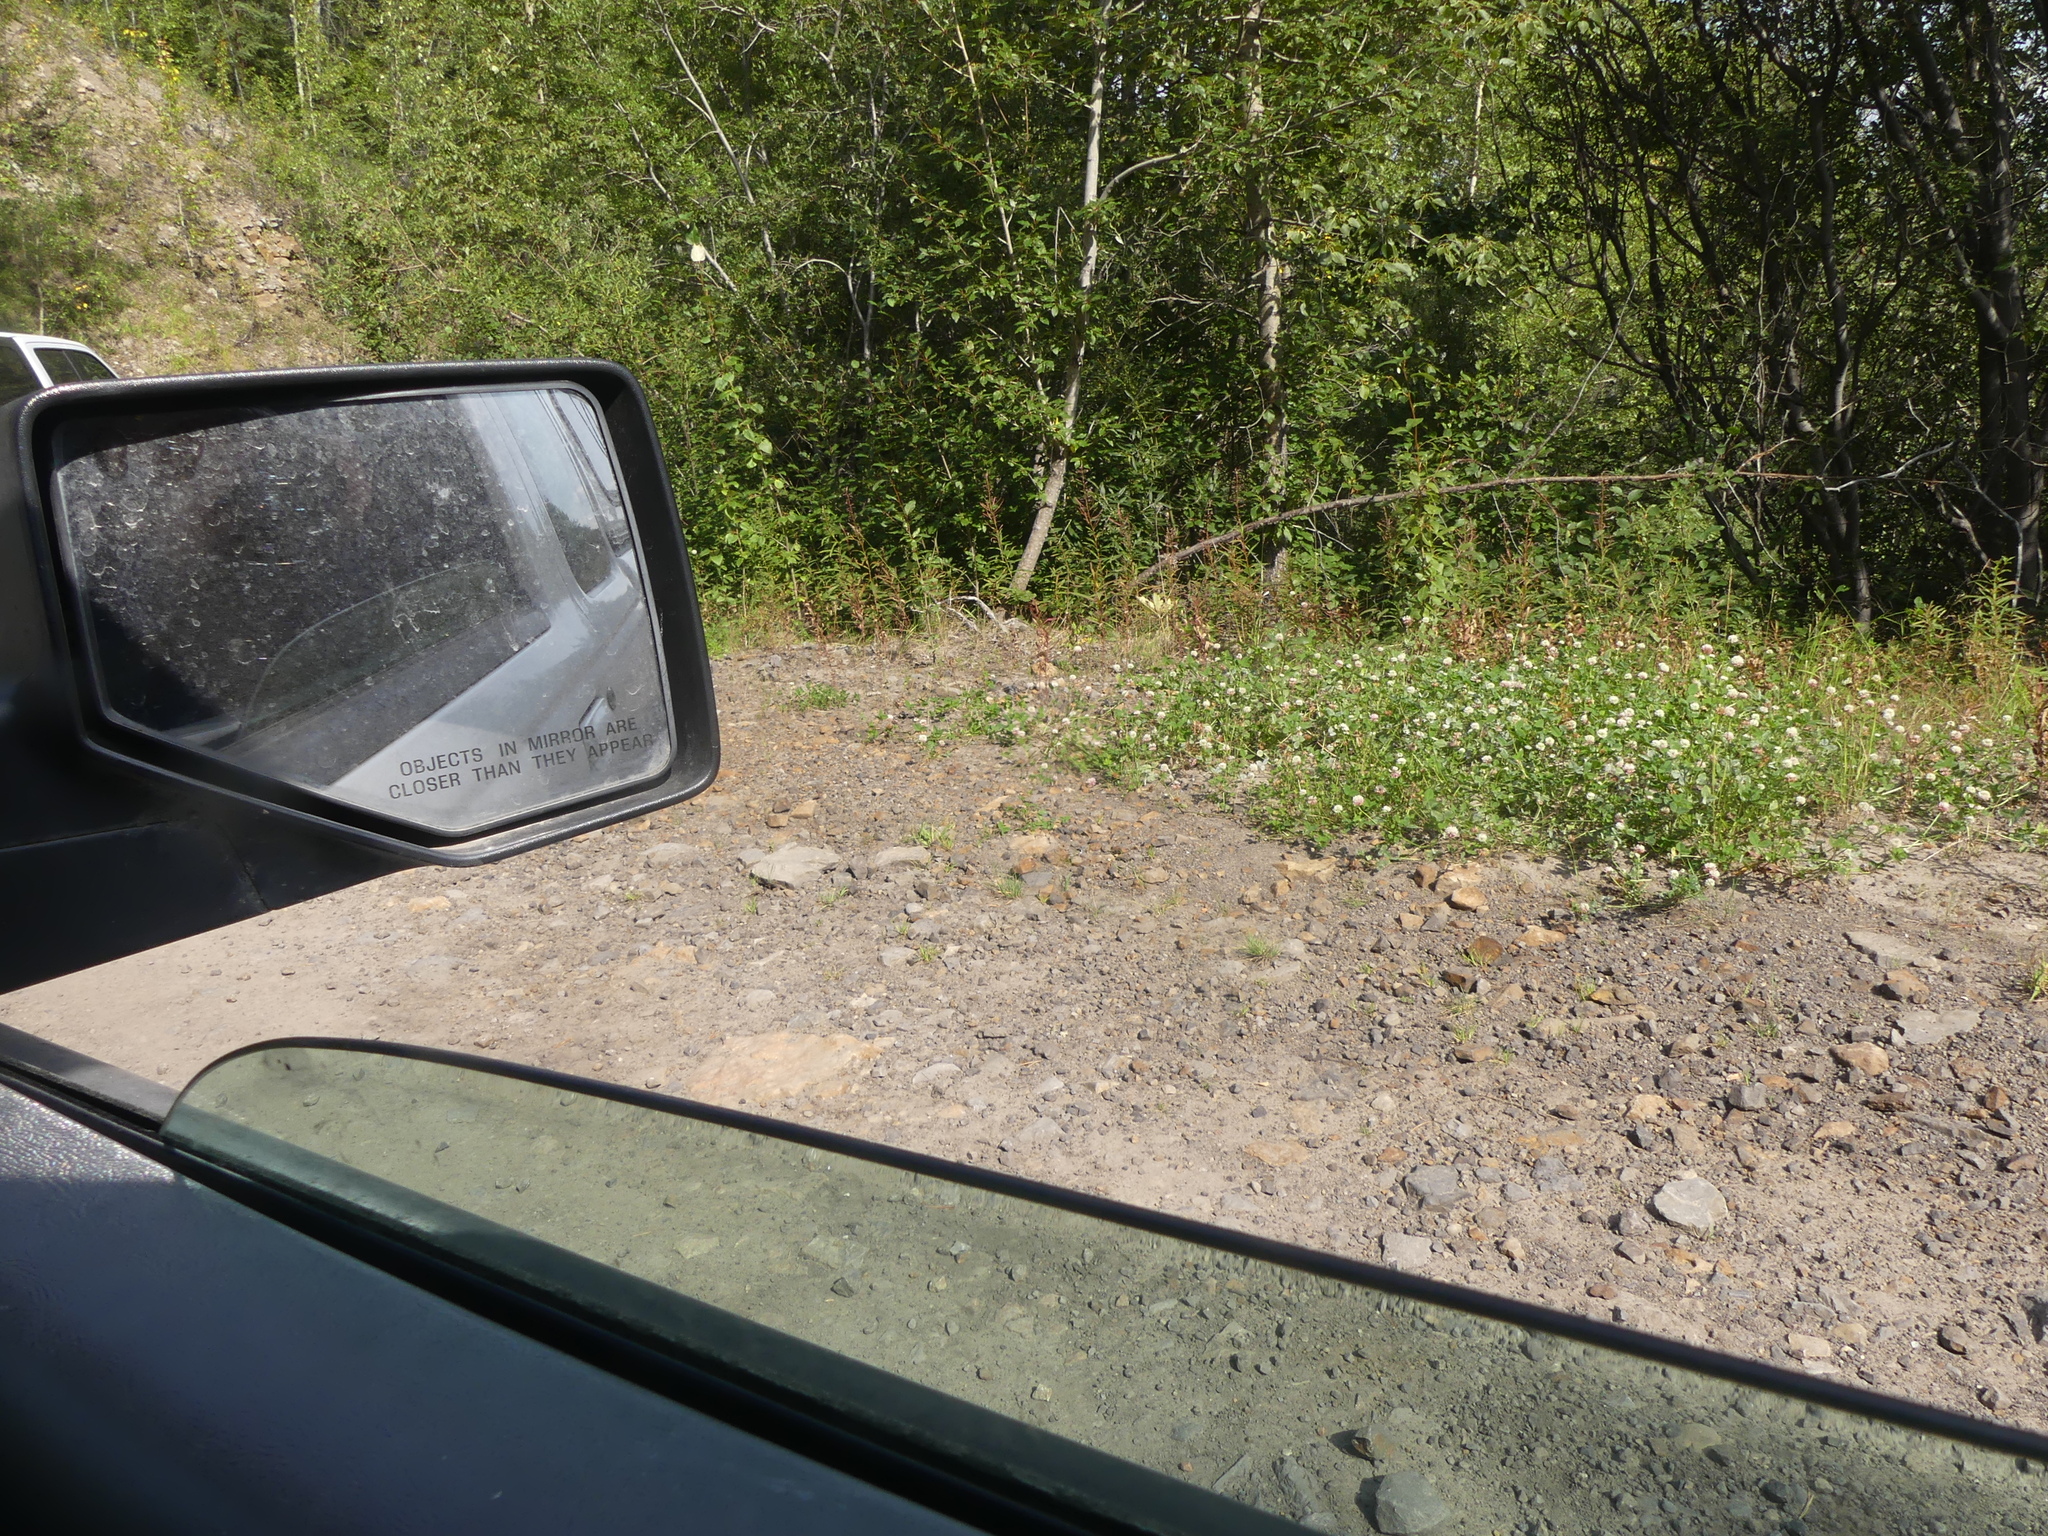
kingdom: Plantae
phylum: Tracheophyta
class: Magnoliopsida
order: Fabales
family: Fabaceae
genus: Trifolium
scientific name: Trifolium hybridum
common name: Alsike clover
